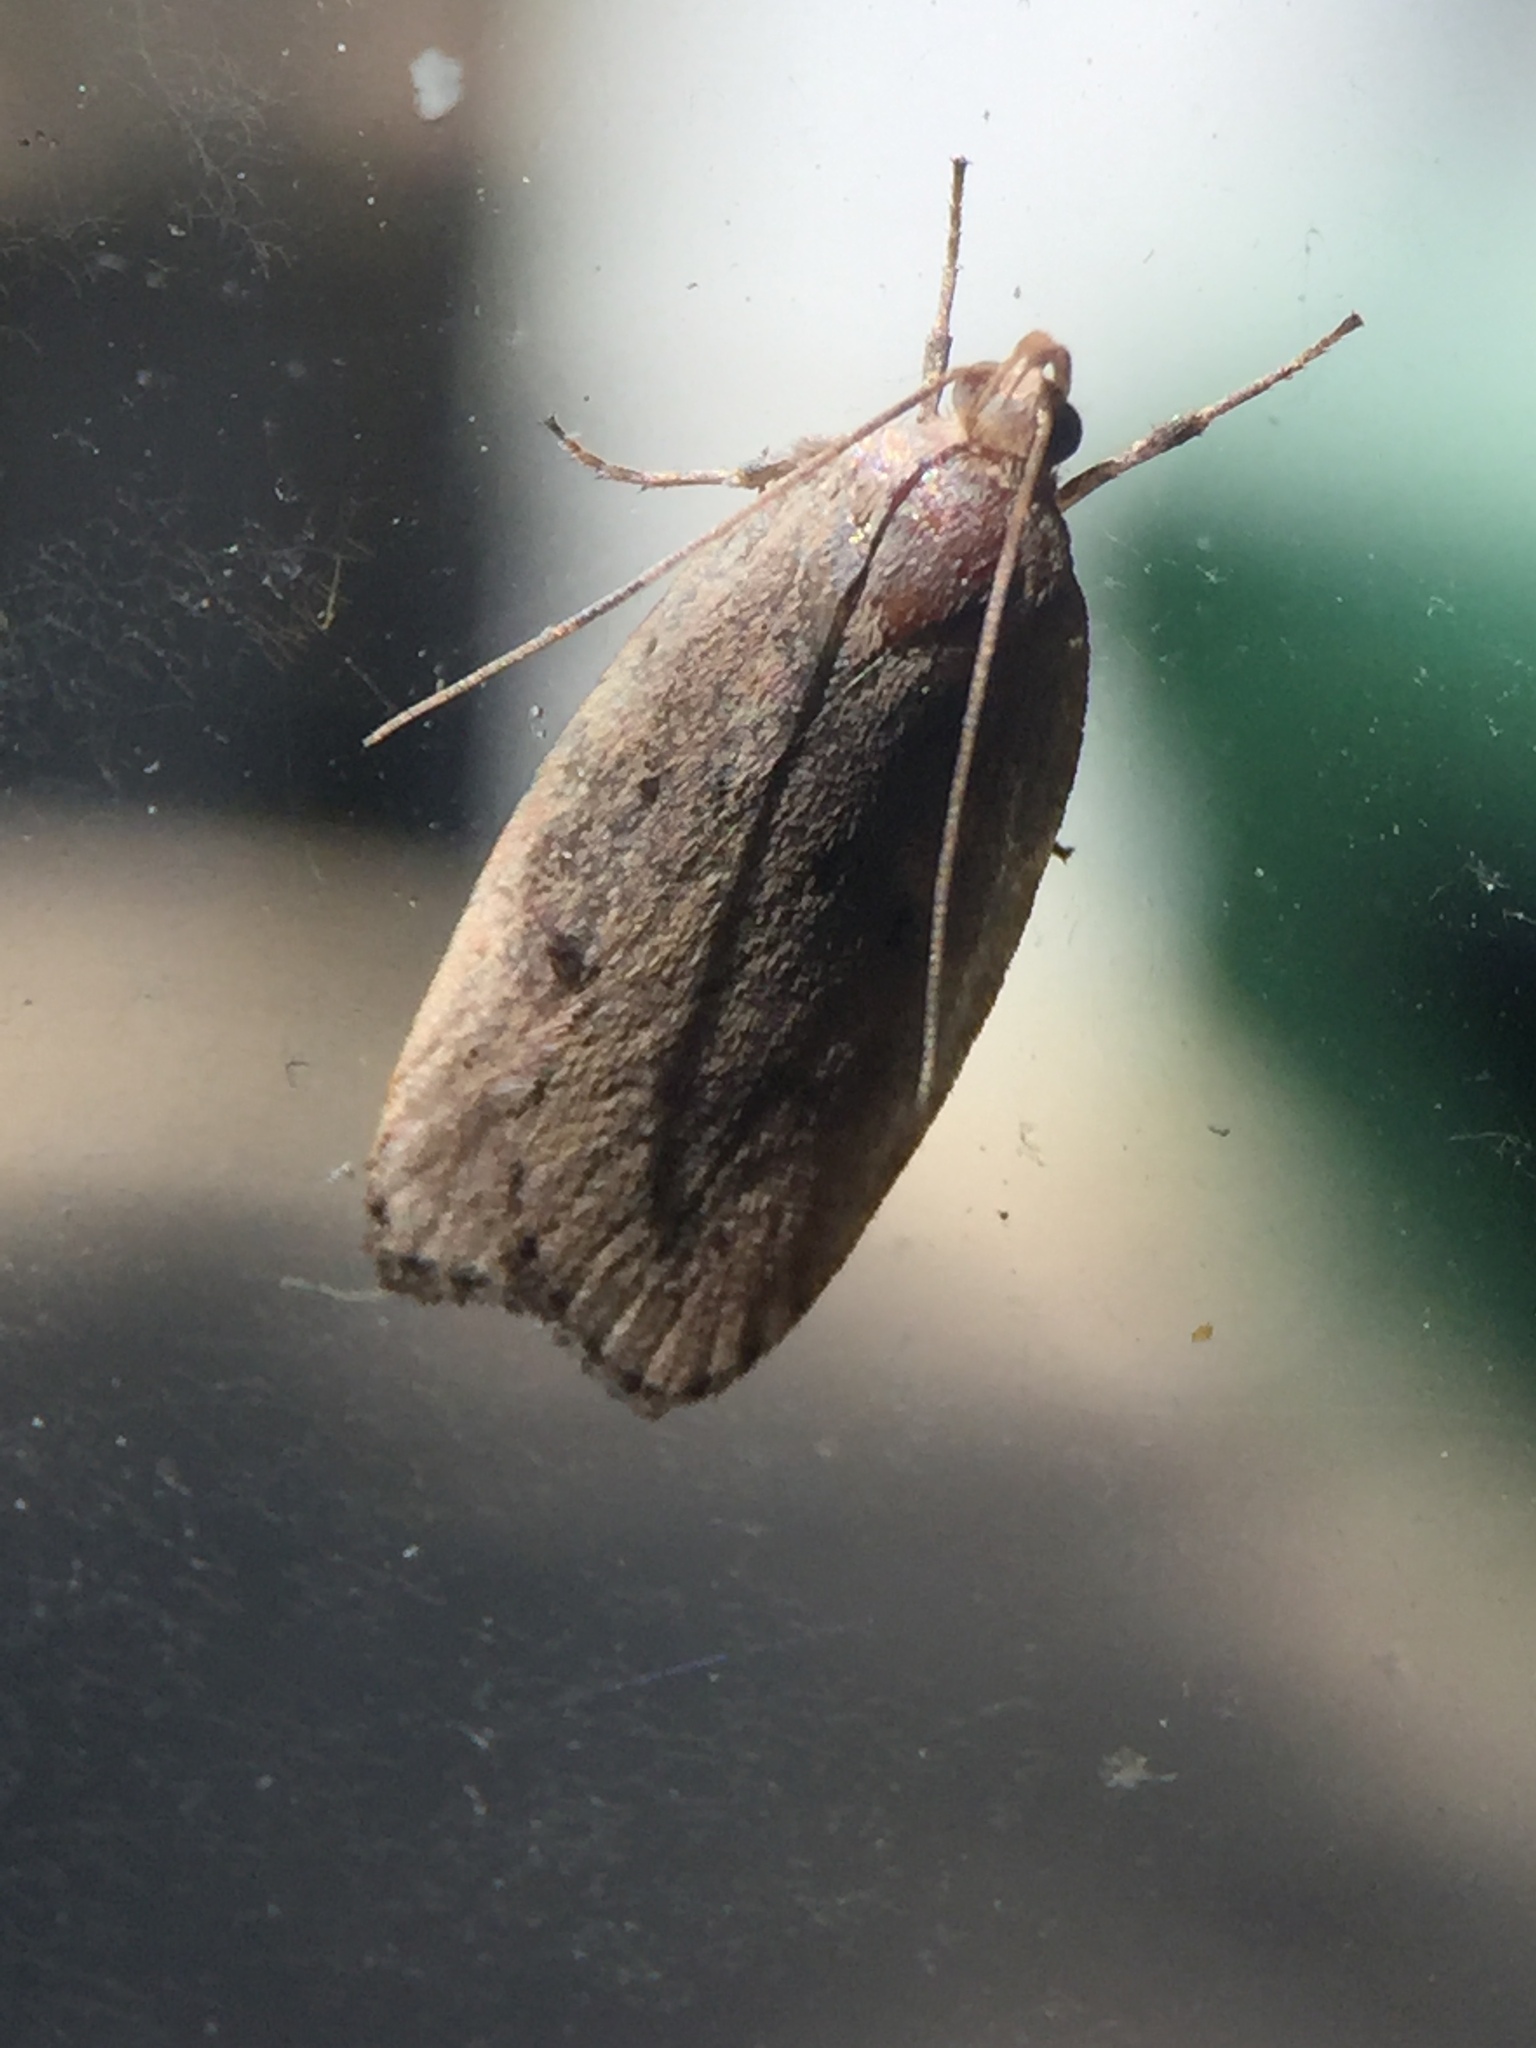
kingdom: Animalia
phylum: Arthropoda
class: Insecta
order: Lepidoptera
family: Depressariidae
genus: Phaeosaces
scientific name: Phaeosaces coarctatella
